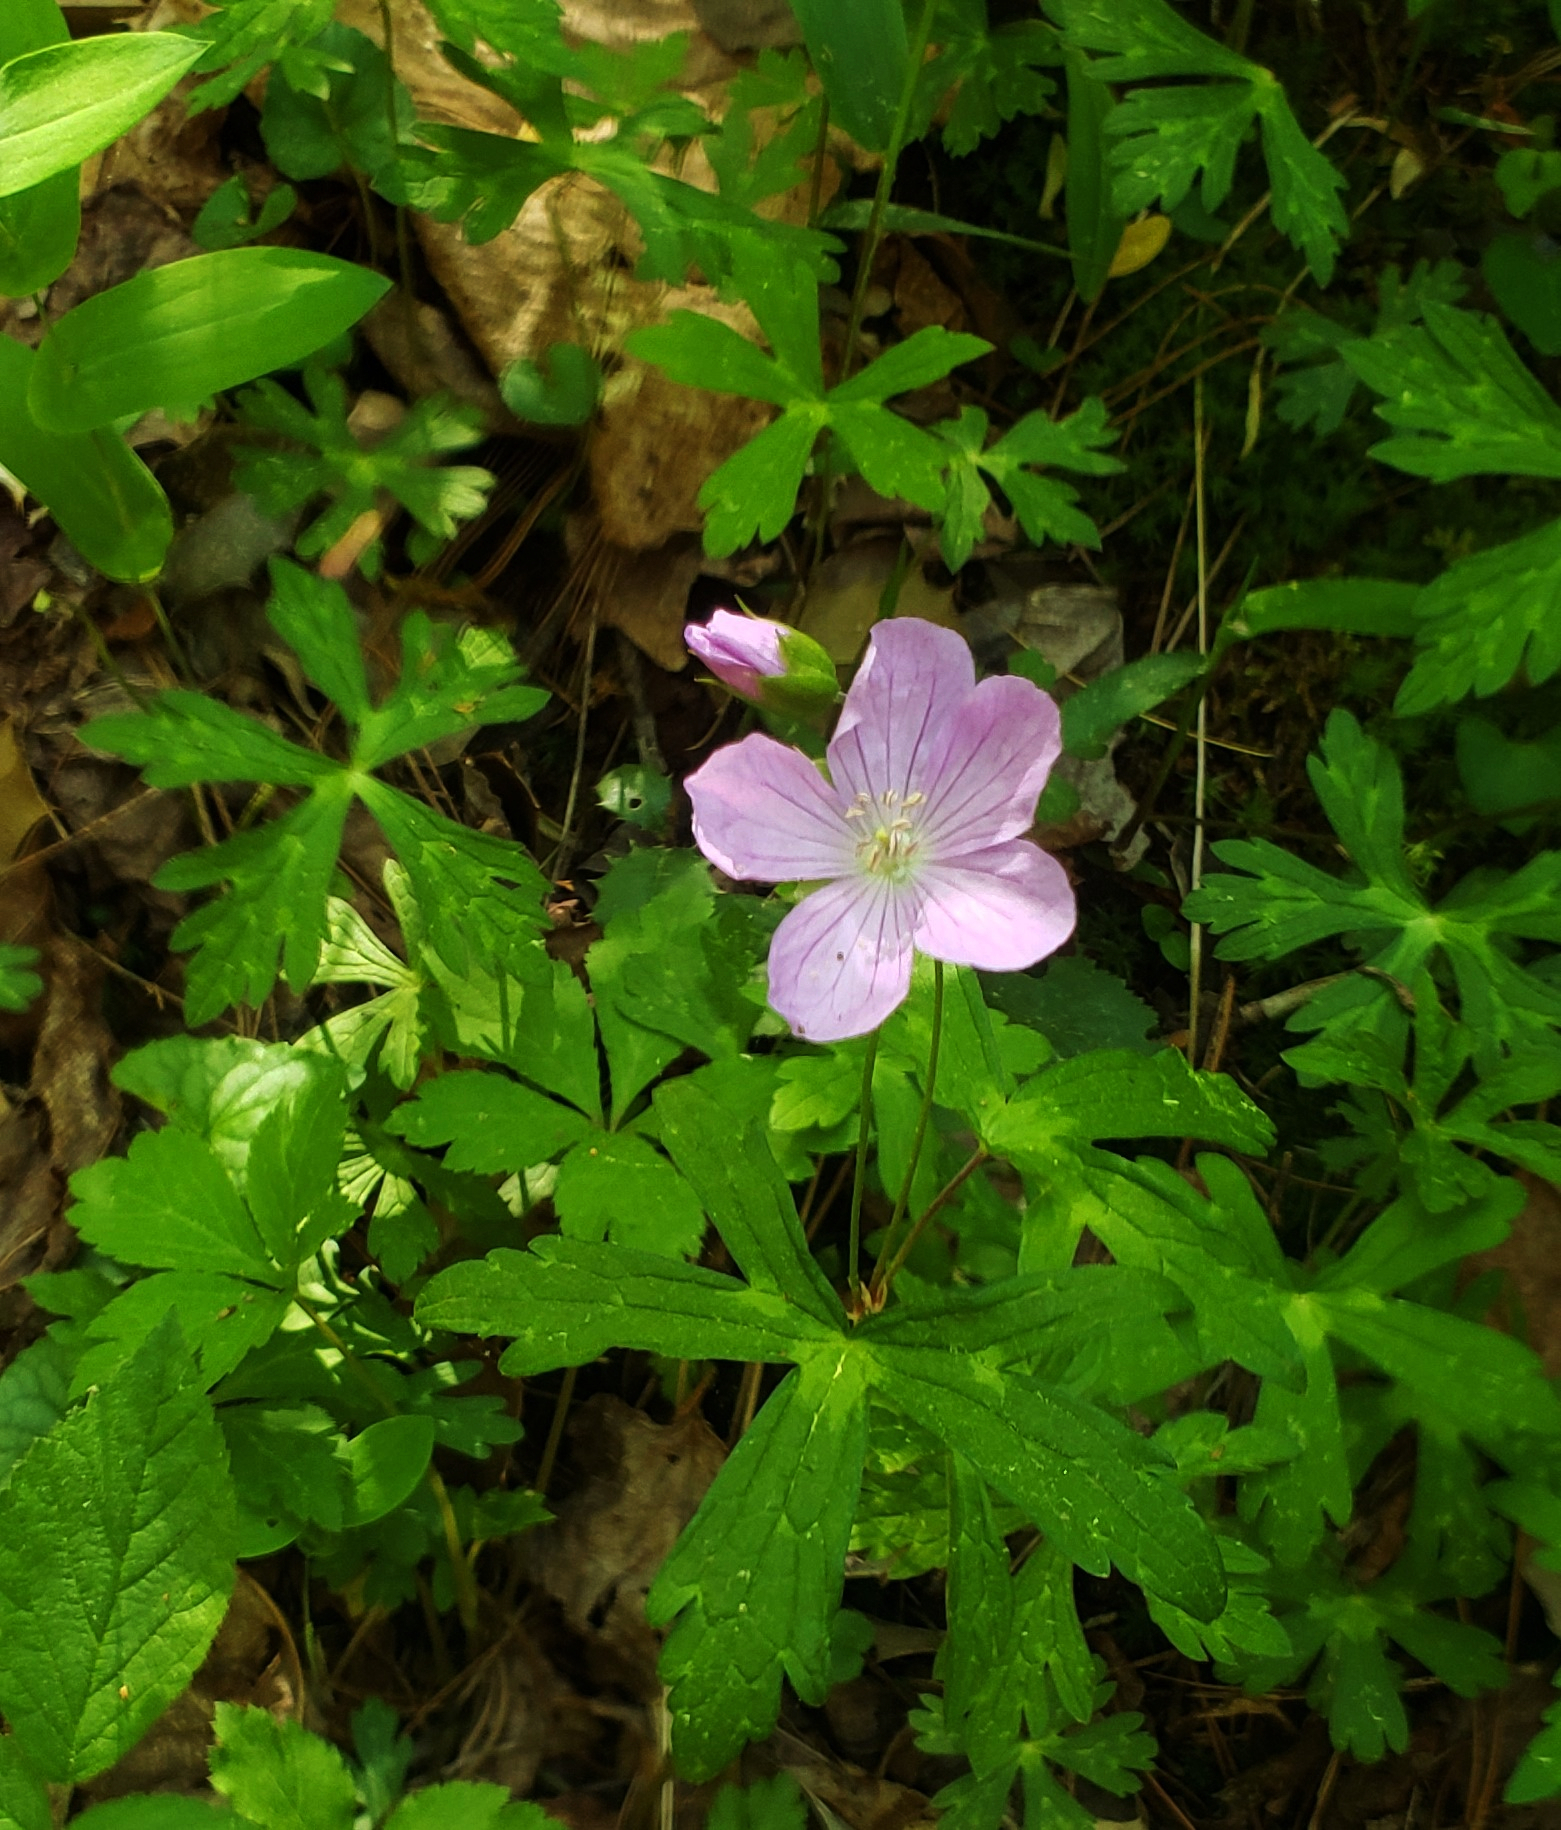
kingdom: Plantae
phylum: Tracheophyta
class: Magnoliopsida
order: Geraniales
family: Geraniaceae
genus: Geranium
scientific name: Geranium maculatum
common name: Spotted geranium
